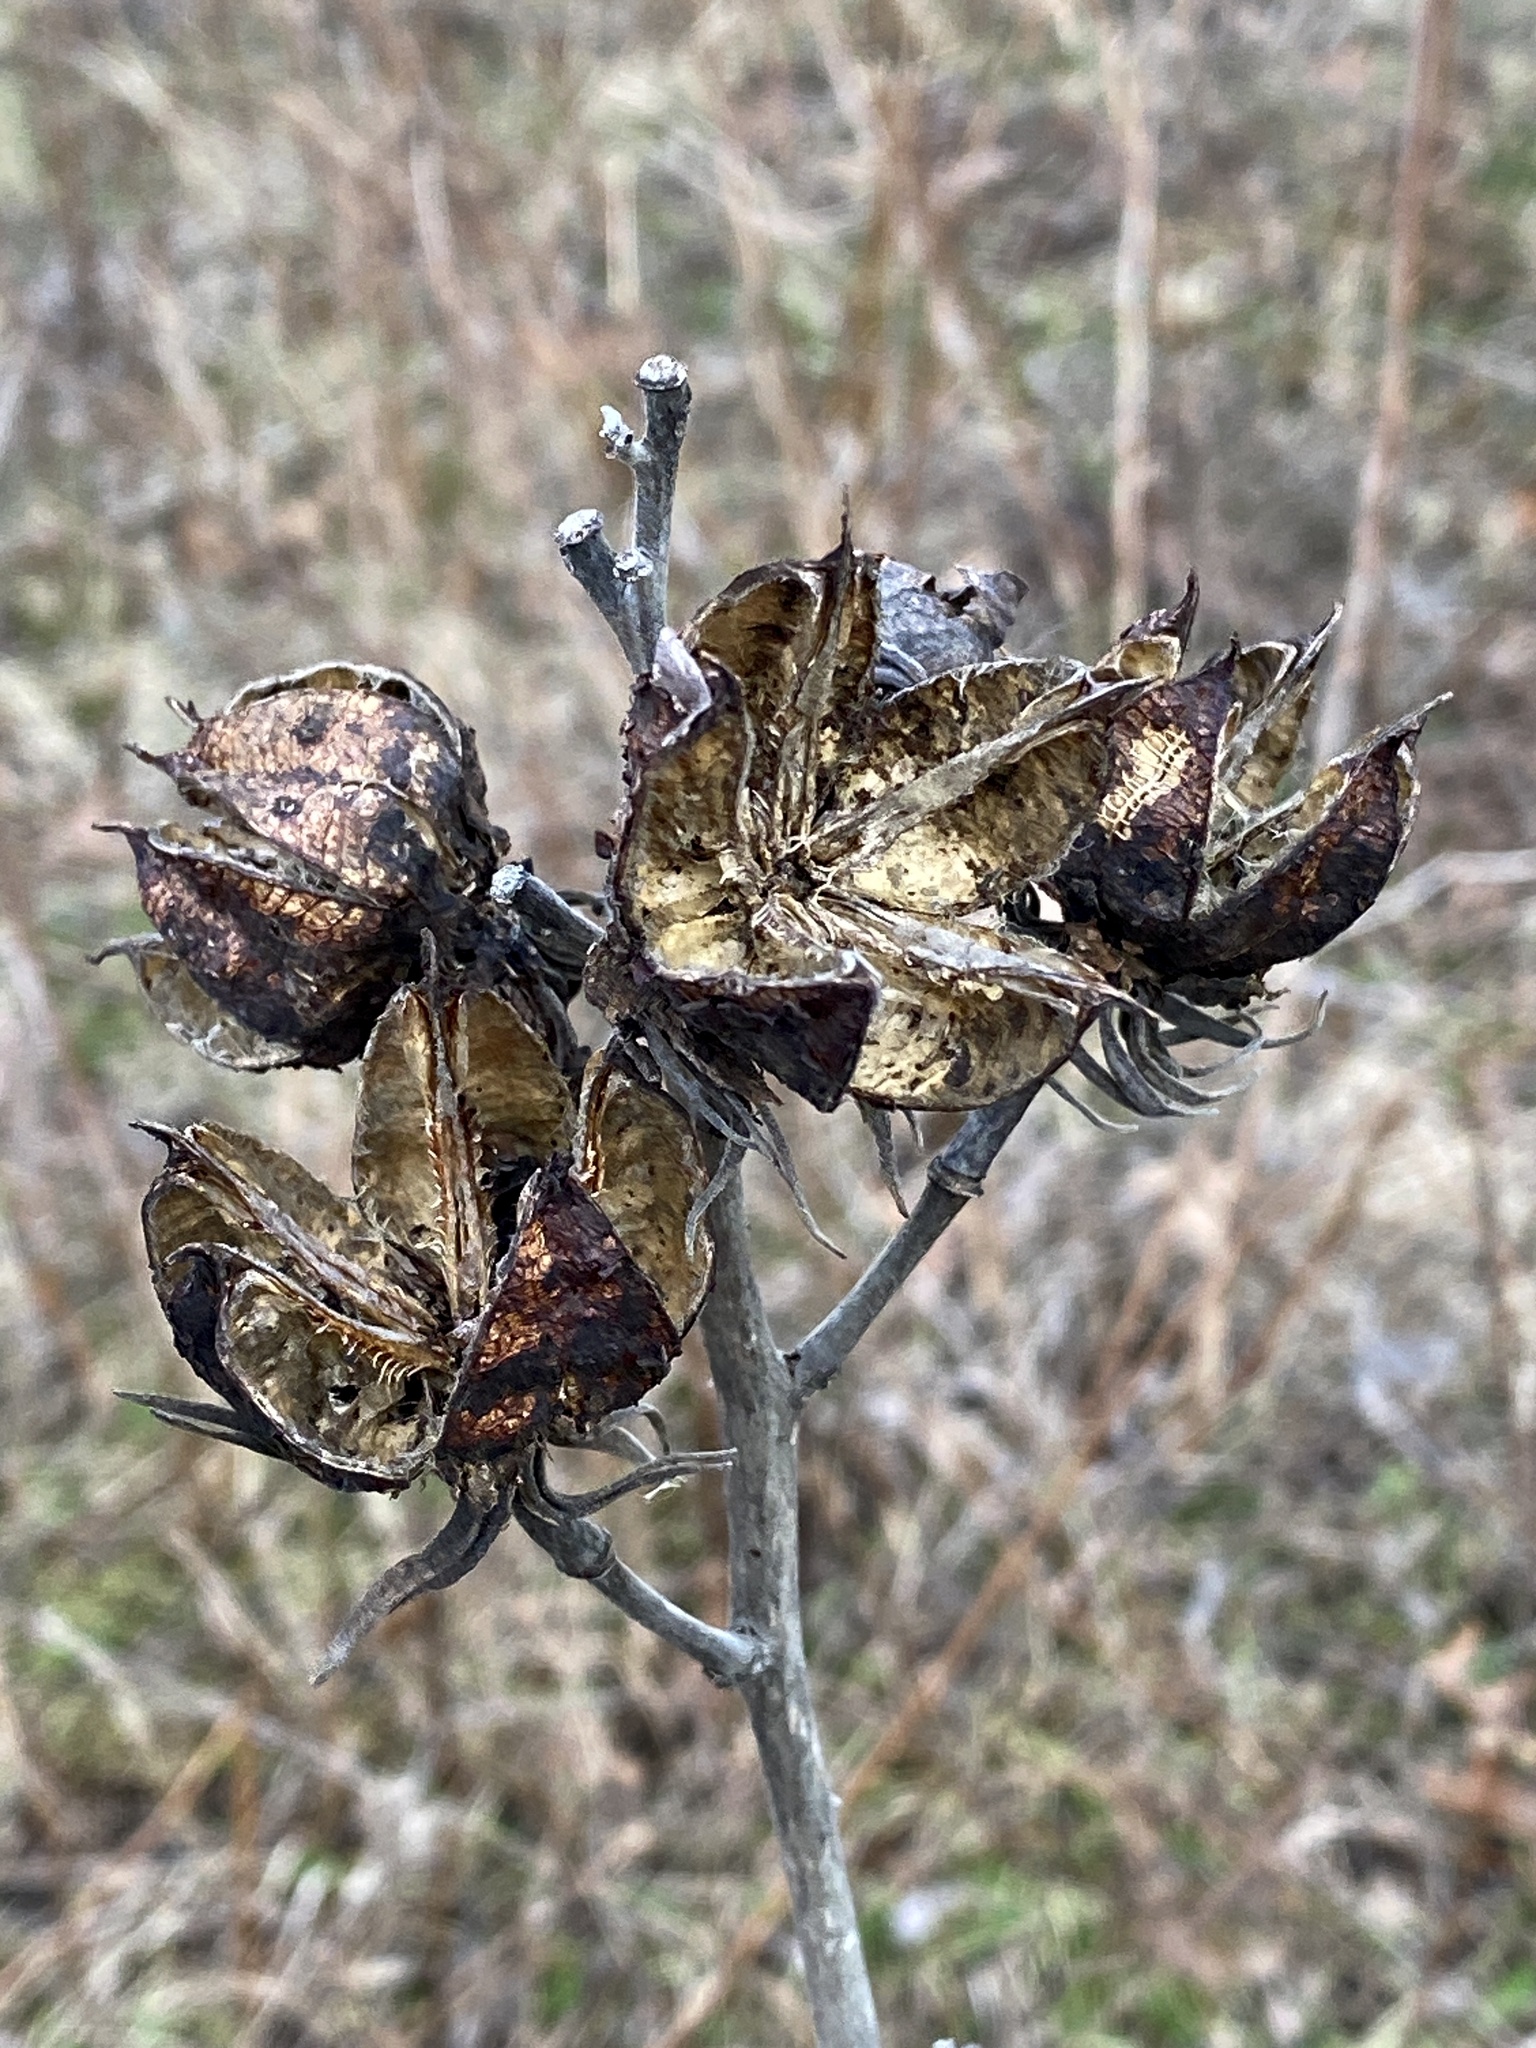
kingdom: Plantae
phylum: Tracheophyta
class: Magnoliopsida
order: Malvales
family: Malvaceae
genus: Hibiscus
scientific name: Hibiscus moscheutos
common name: Common rose-mallow
